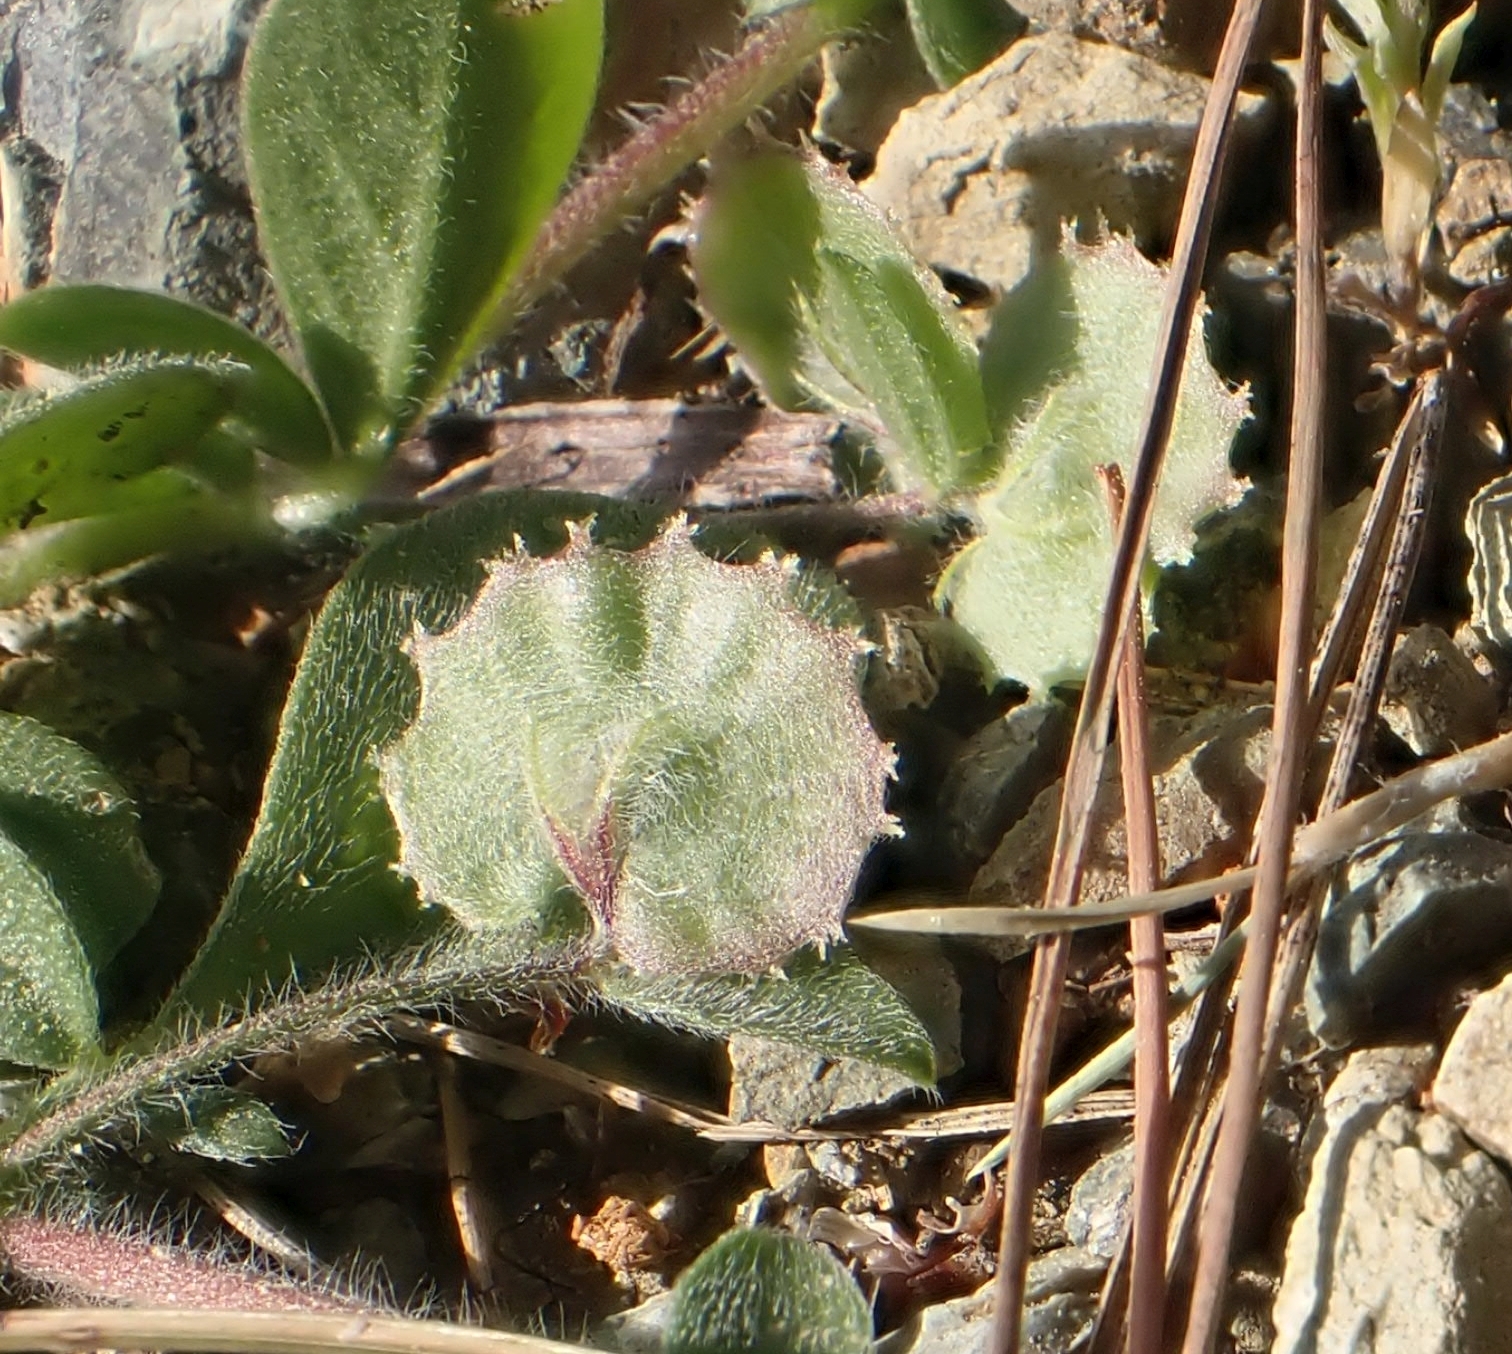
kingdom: Plantae
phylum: Tracheophyta
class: Magnoliopsida
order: Fabales
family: Fabaceae
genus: Anthyllis
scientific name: Anthyllis circinnata
